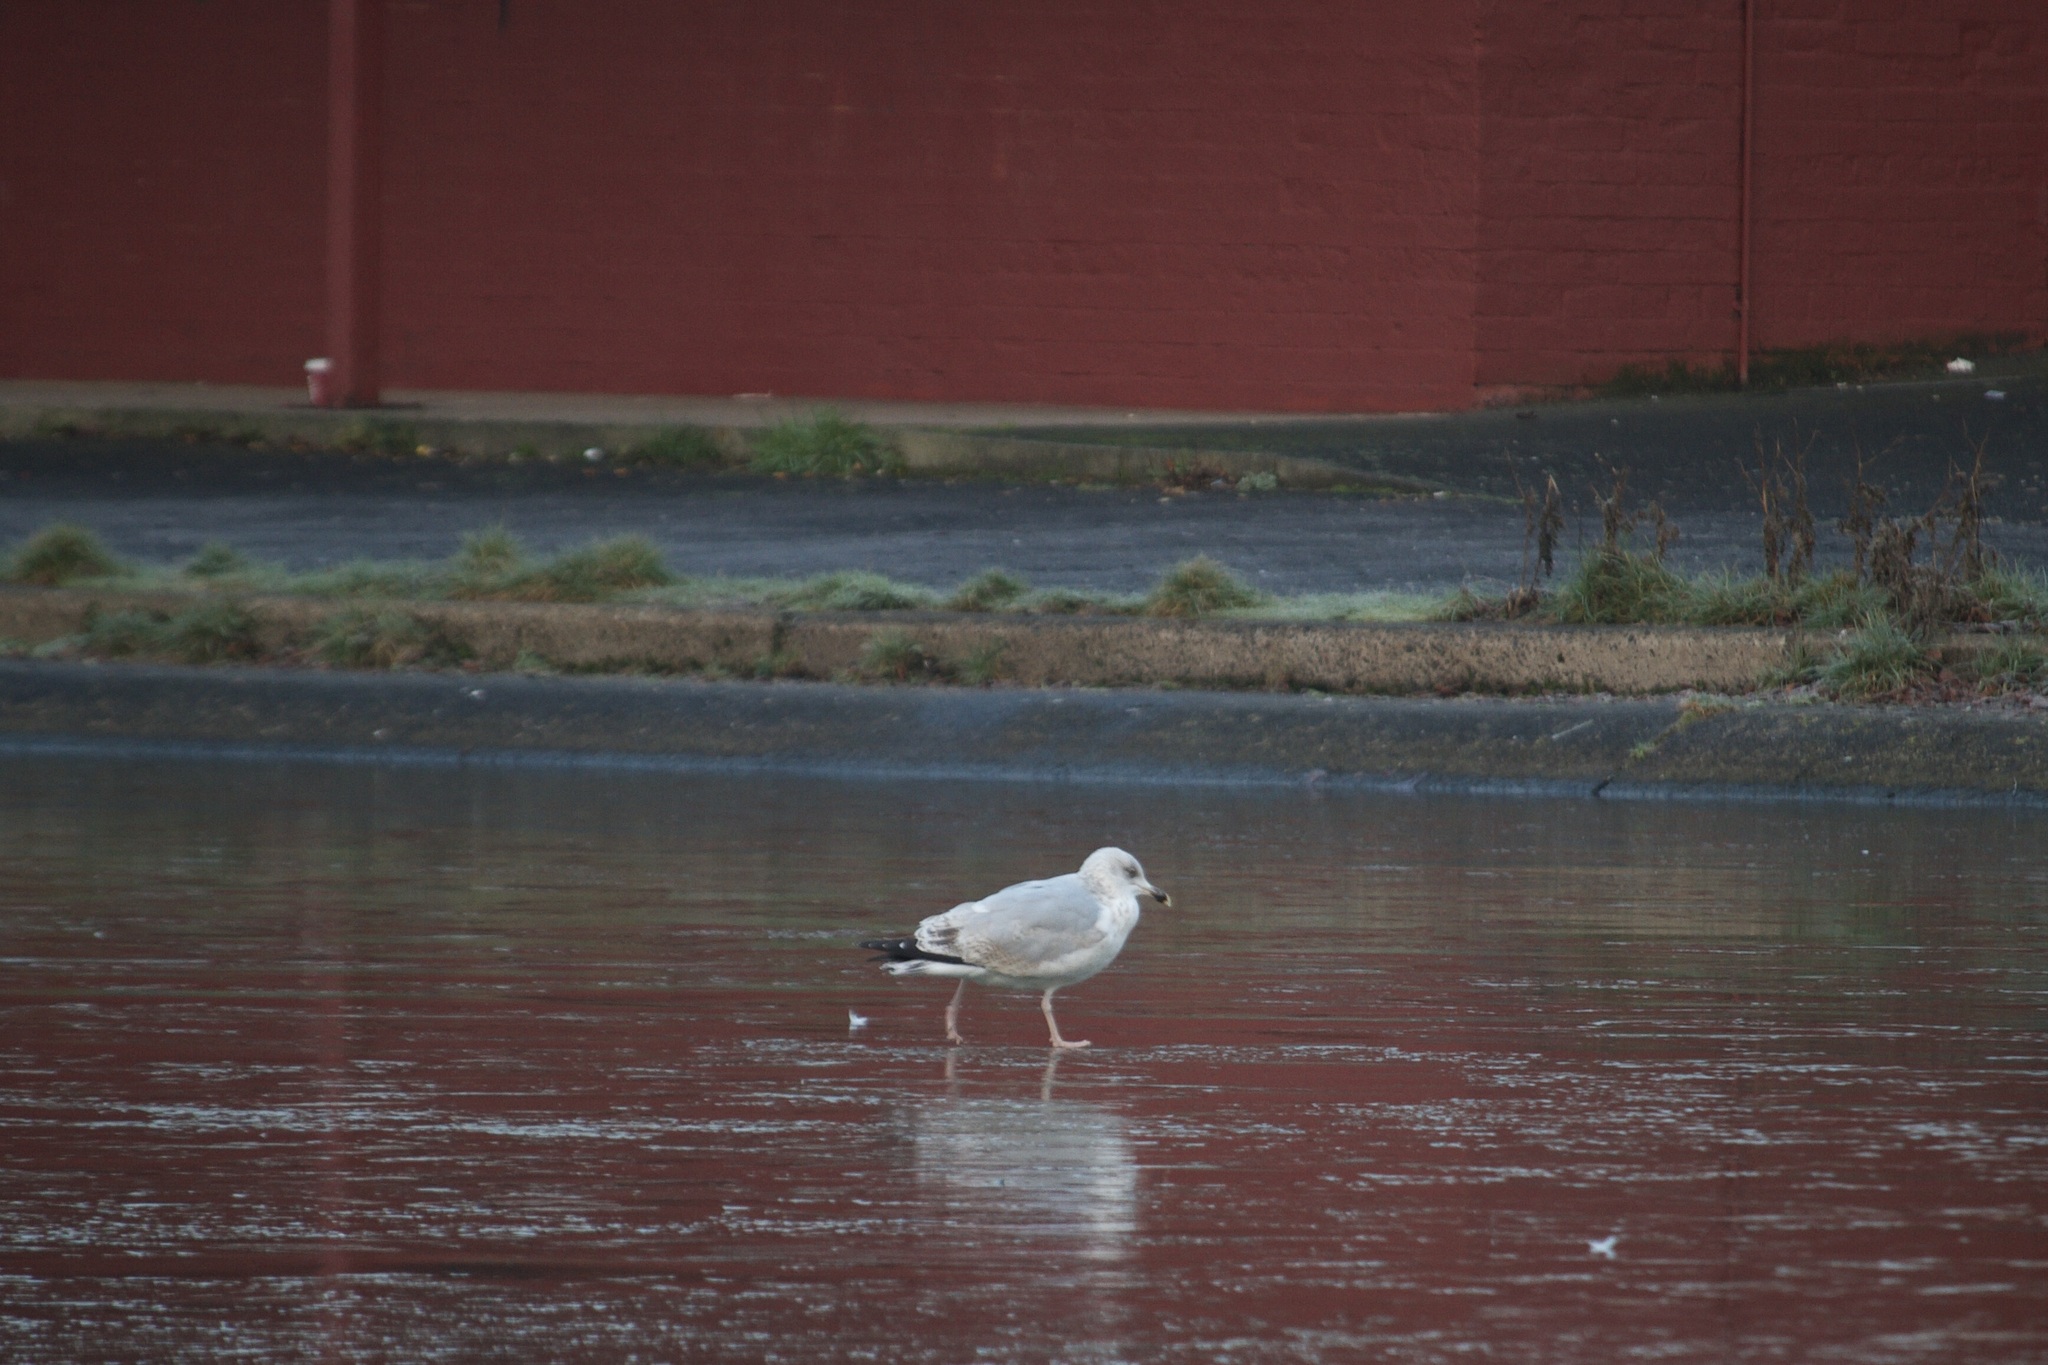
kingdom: Animalia
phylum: Chordata
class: Aves
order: Charadriiformes
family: Laridae
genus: Larus
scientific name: Larus argentatus
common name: Herring gull
